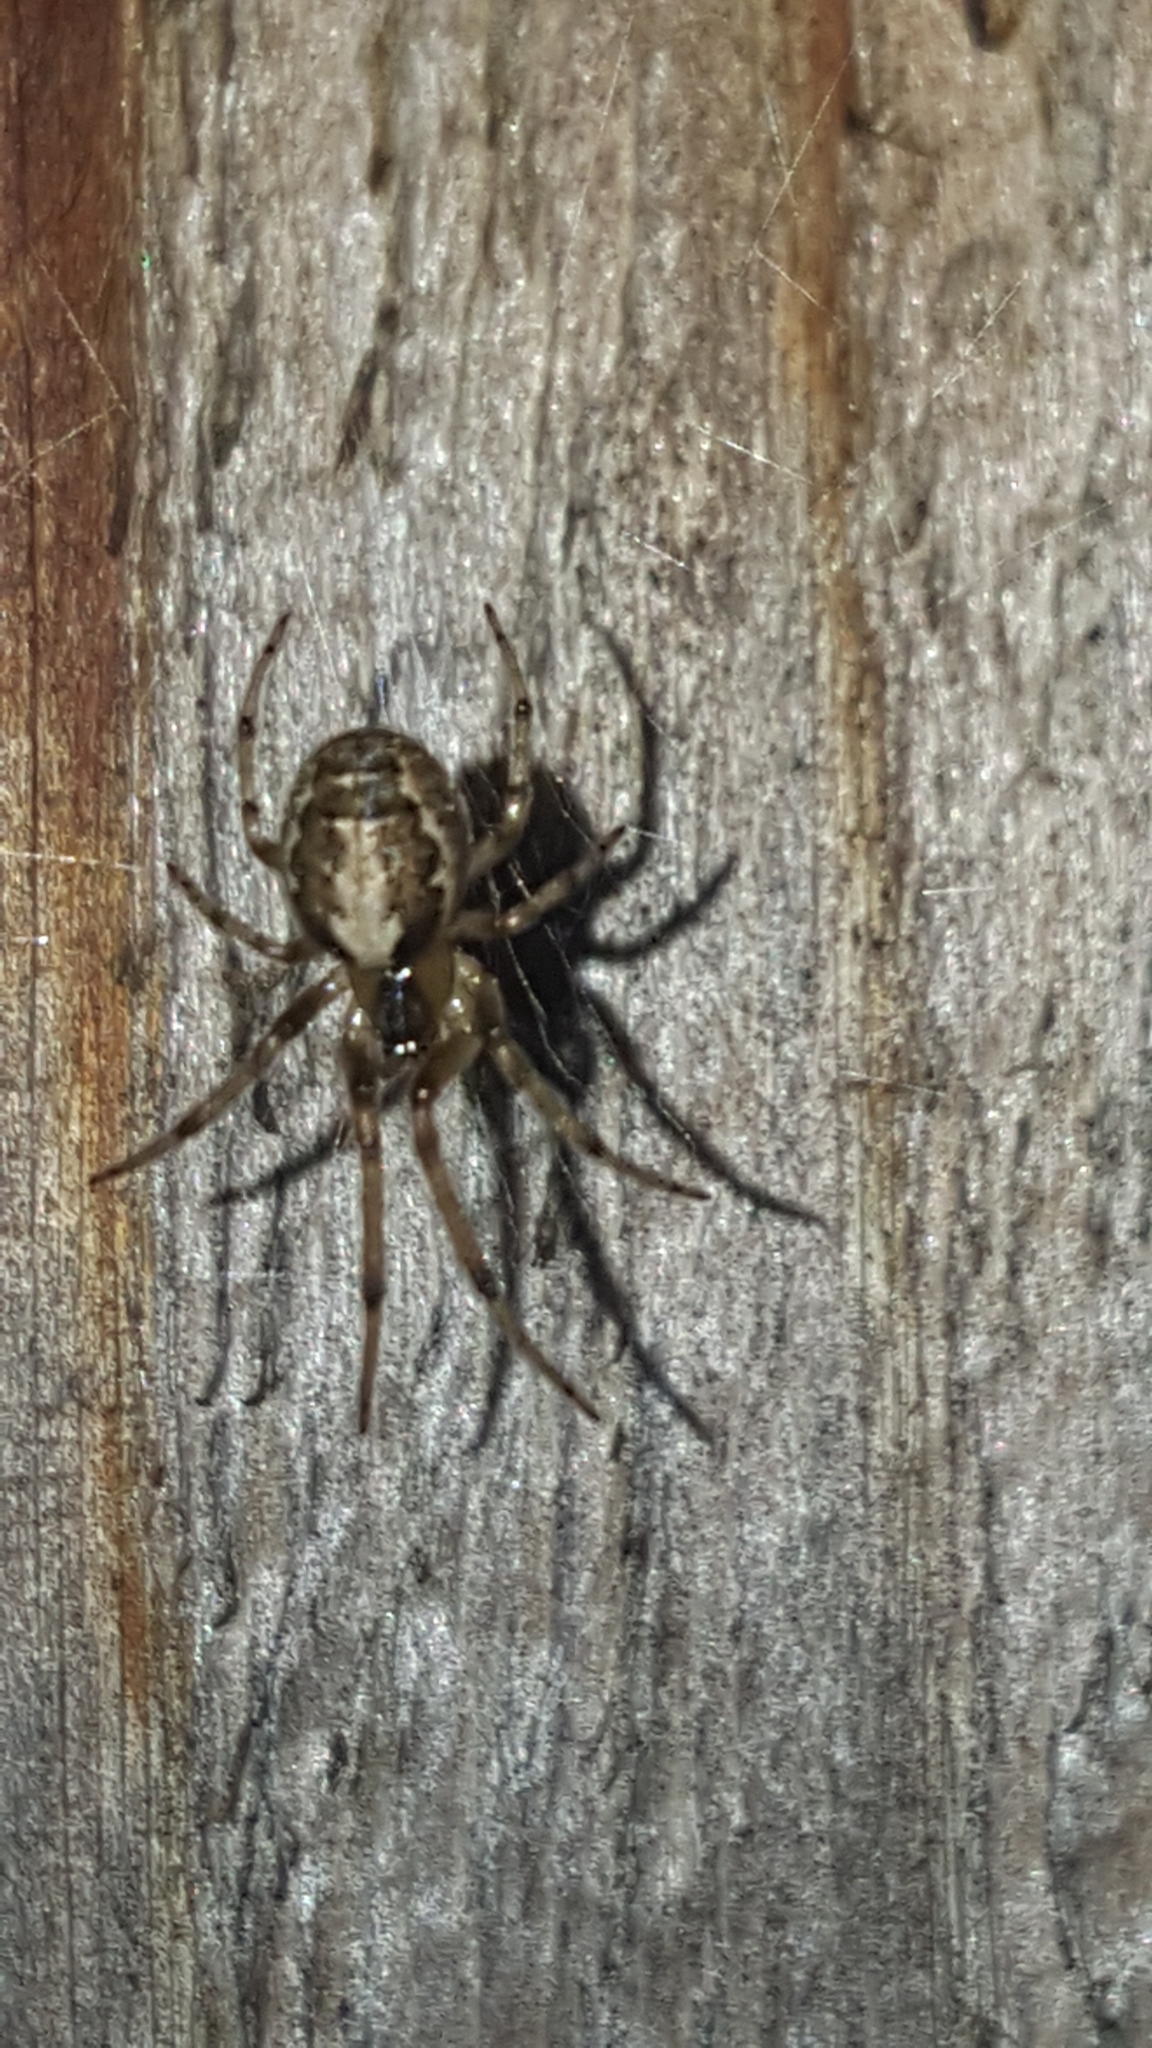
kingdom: Animalia
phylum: Arthropoda
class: Arachnida
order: Araneae
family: Araneidae
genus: Zygiella
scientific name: Zygiella x-notata
